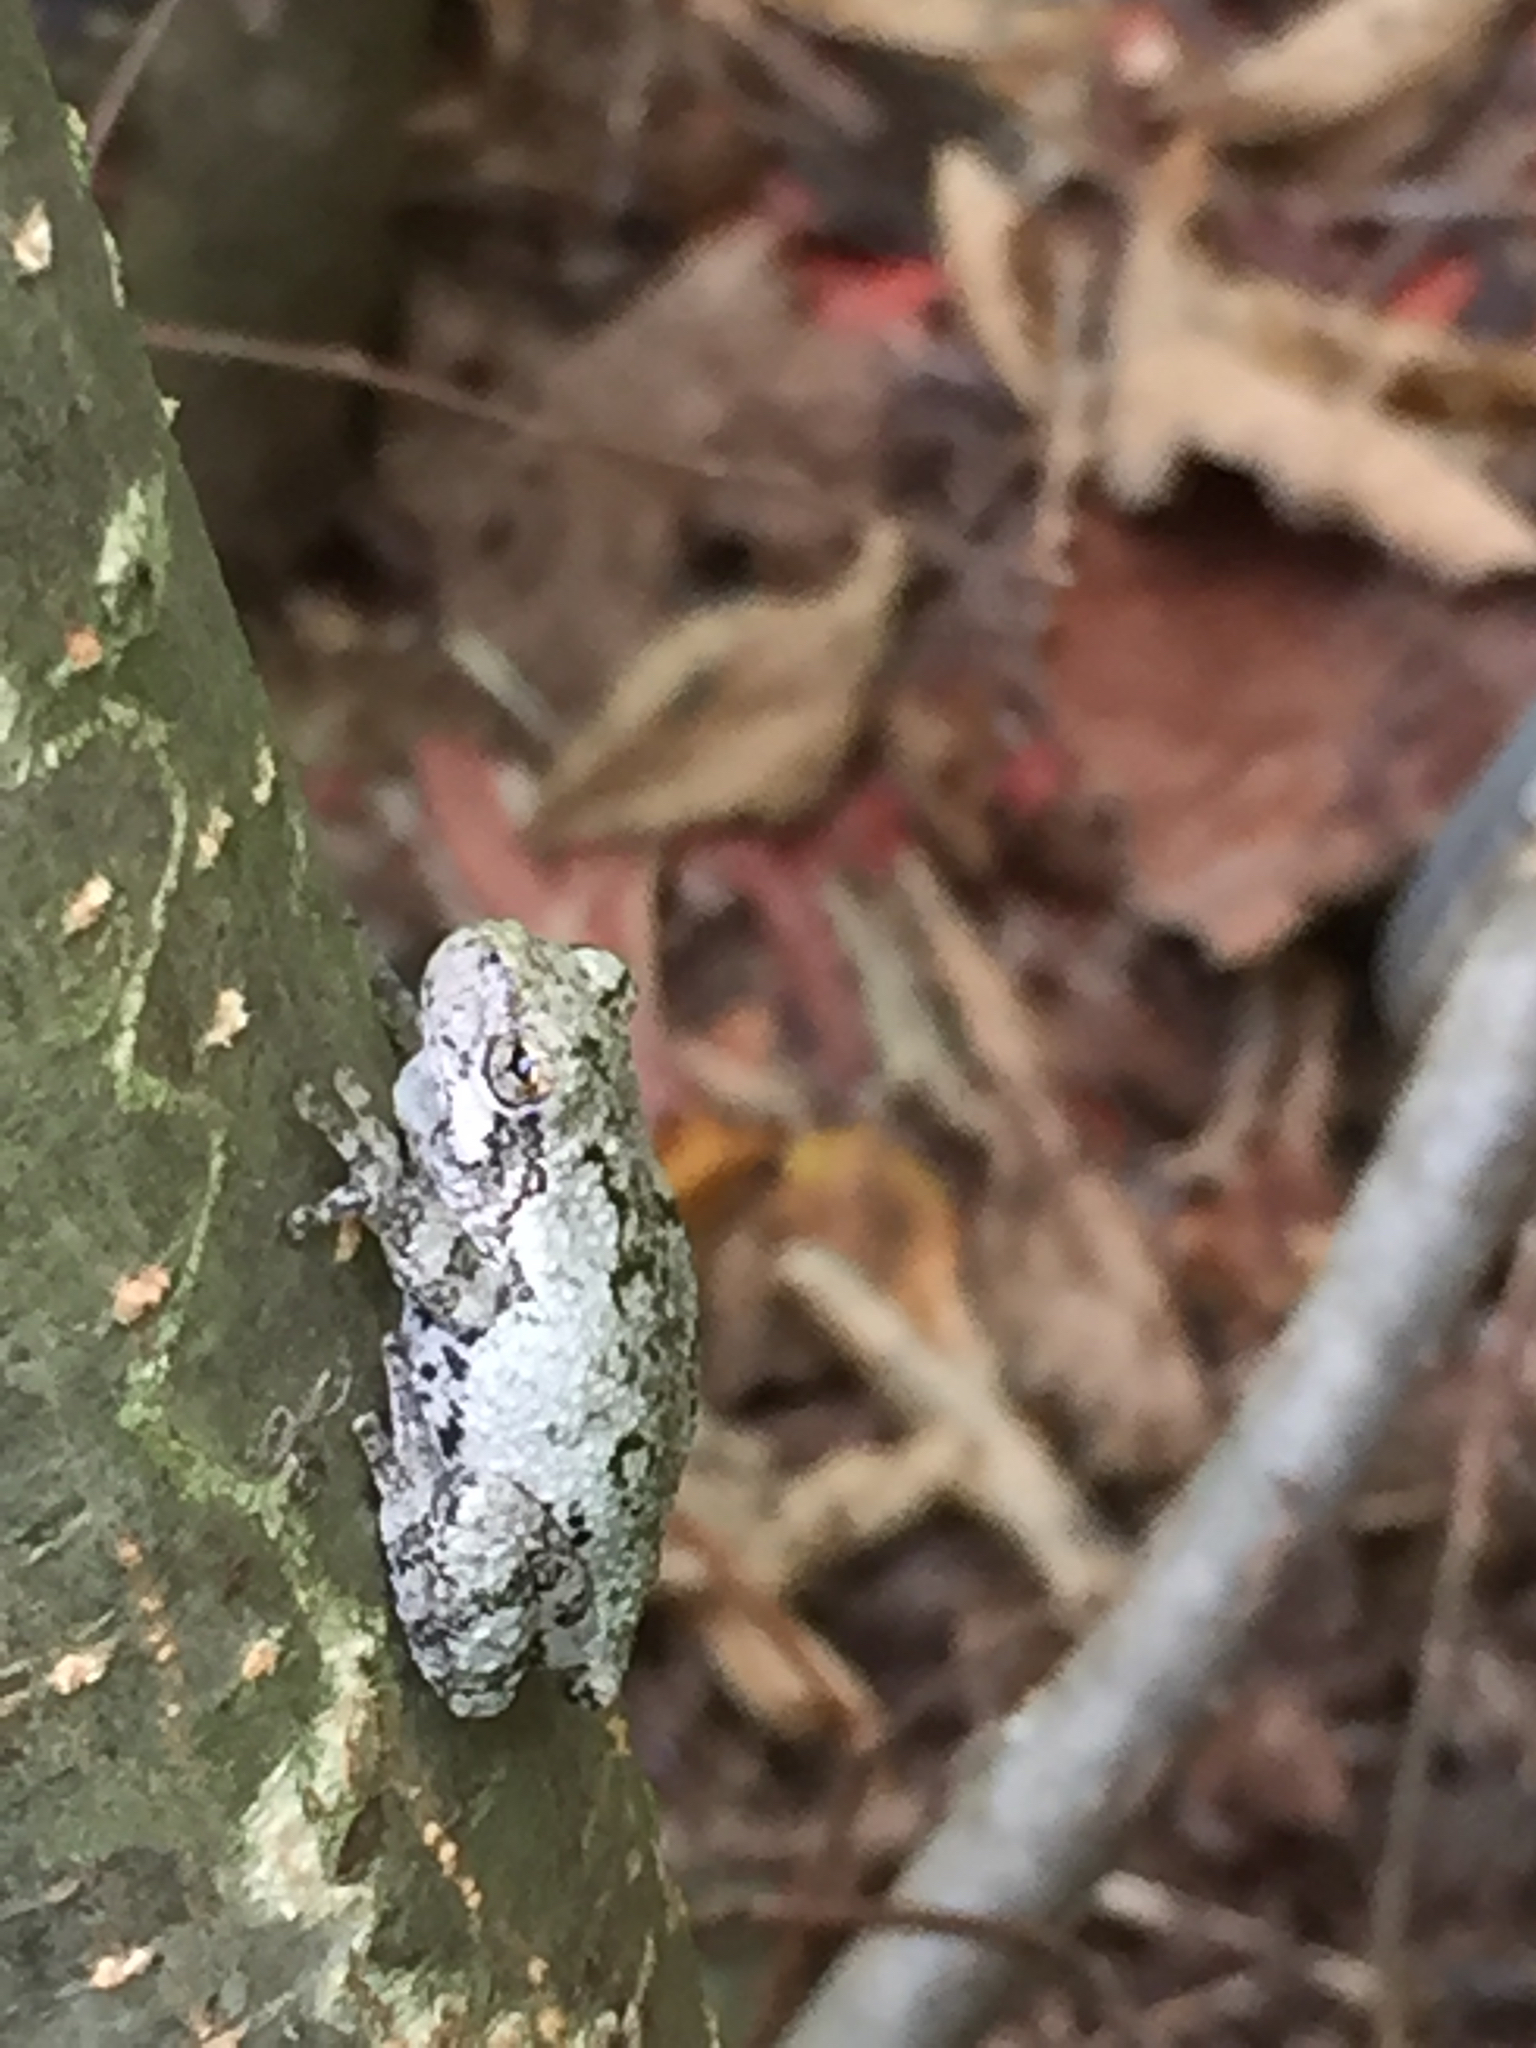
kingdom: Animalia
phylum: Chordata
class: Amphibia
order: Anura
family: Hylidae
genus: Dryophytes
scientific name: Dryophytes versicolor
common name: Gray treefrog
